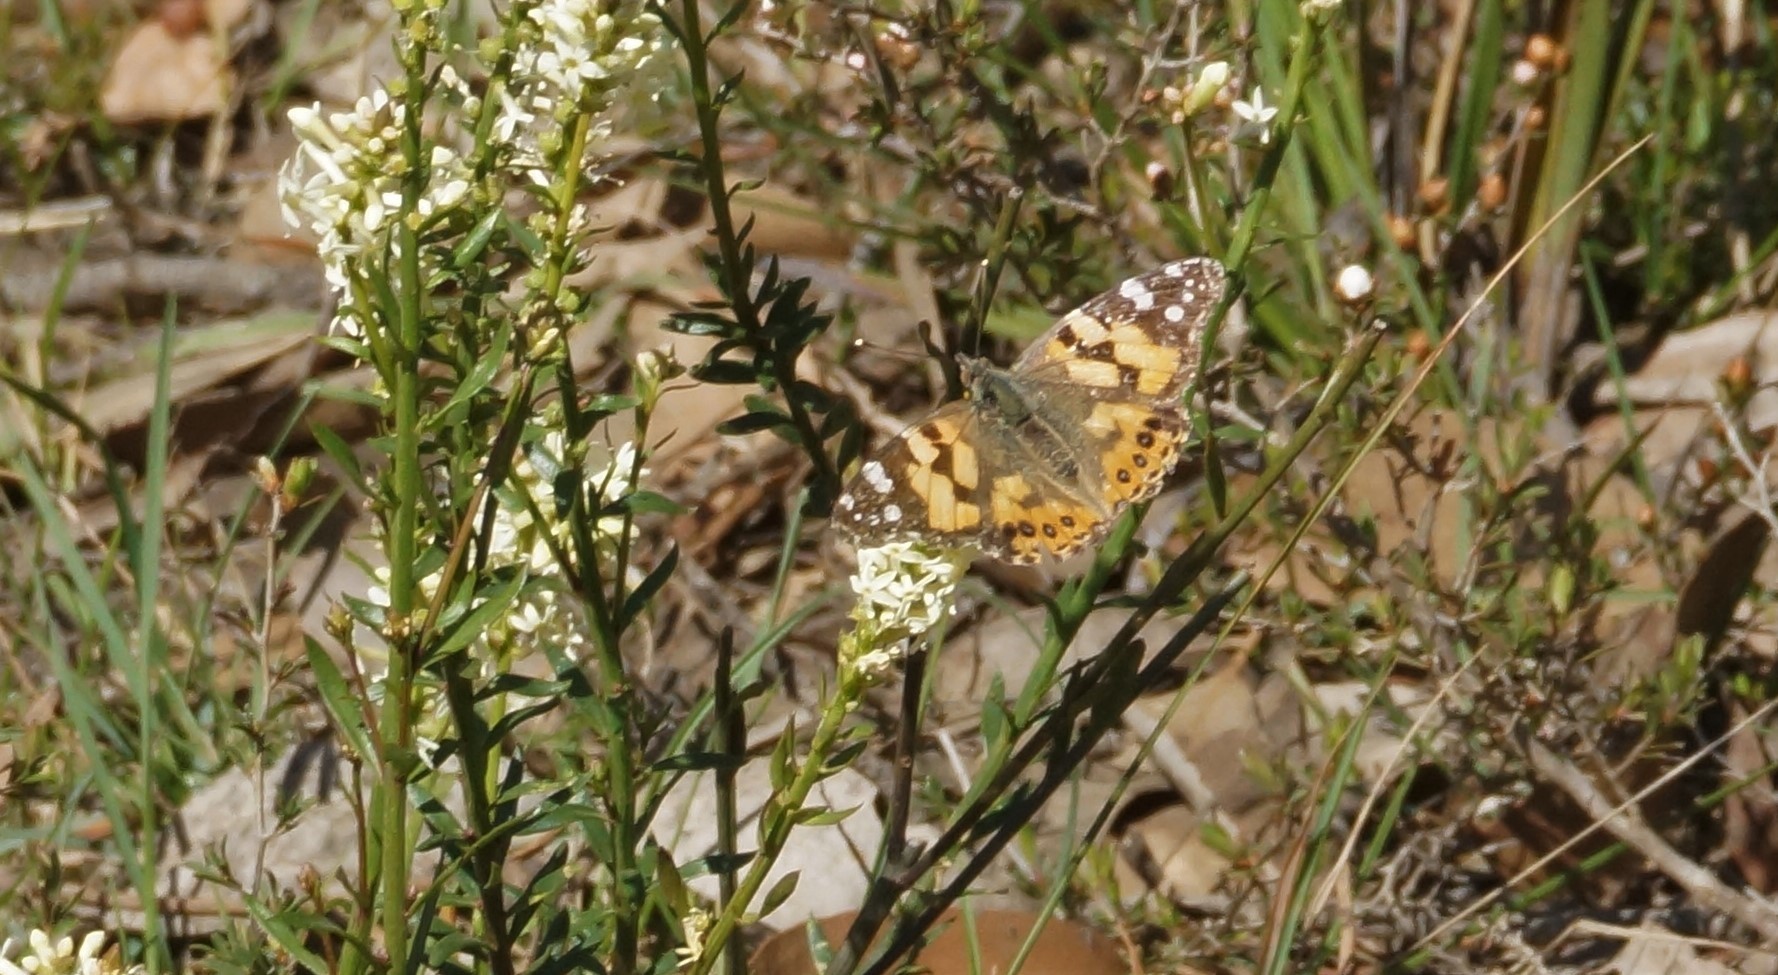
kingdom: Animalia
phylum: Arthropoda
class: Insecta
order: Lepidoptera
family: Nymphalidae
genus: Vanessa
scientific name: Vanessa kershawi
